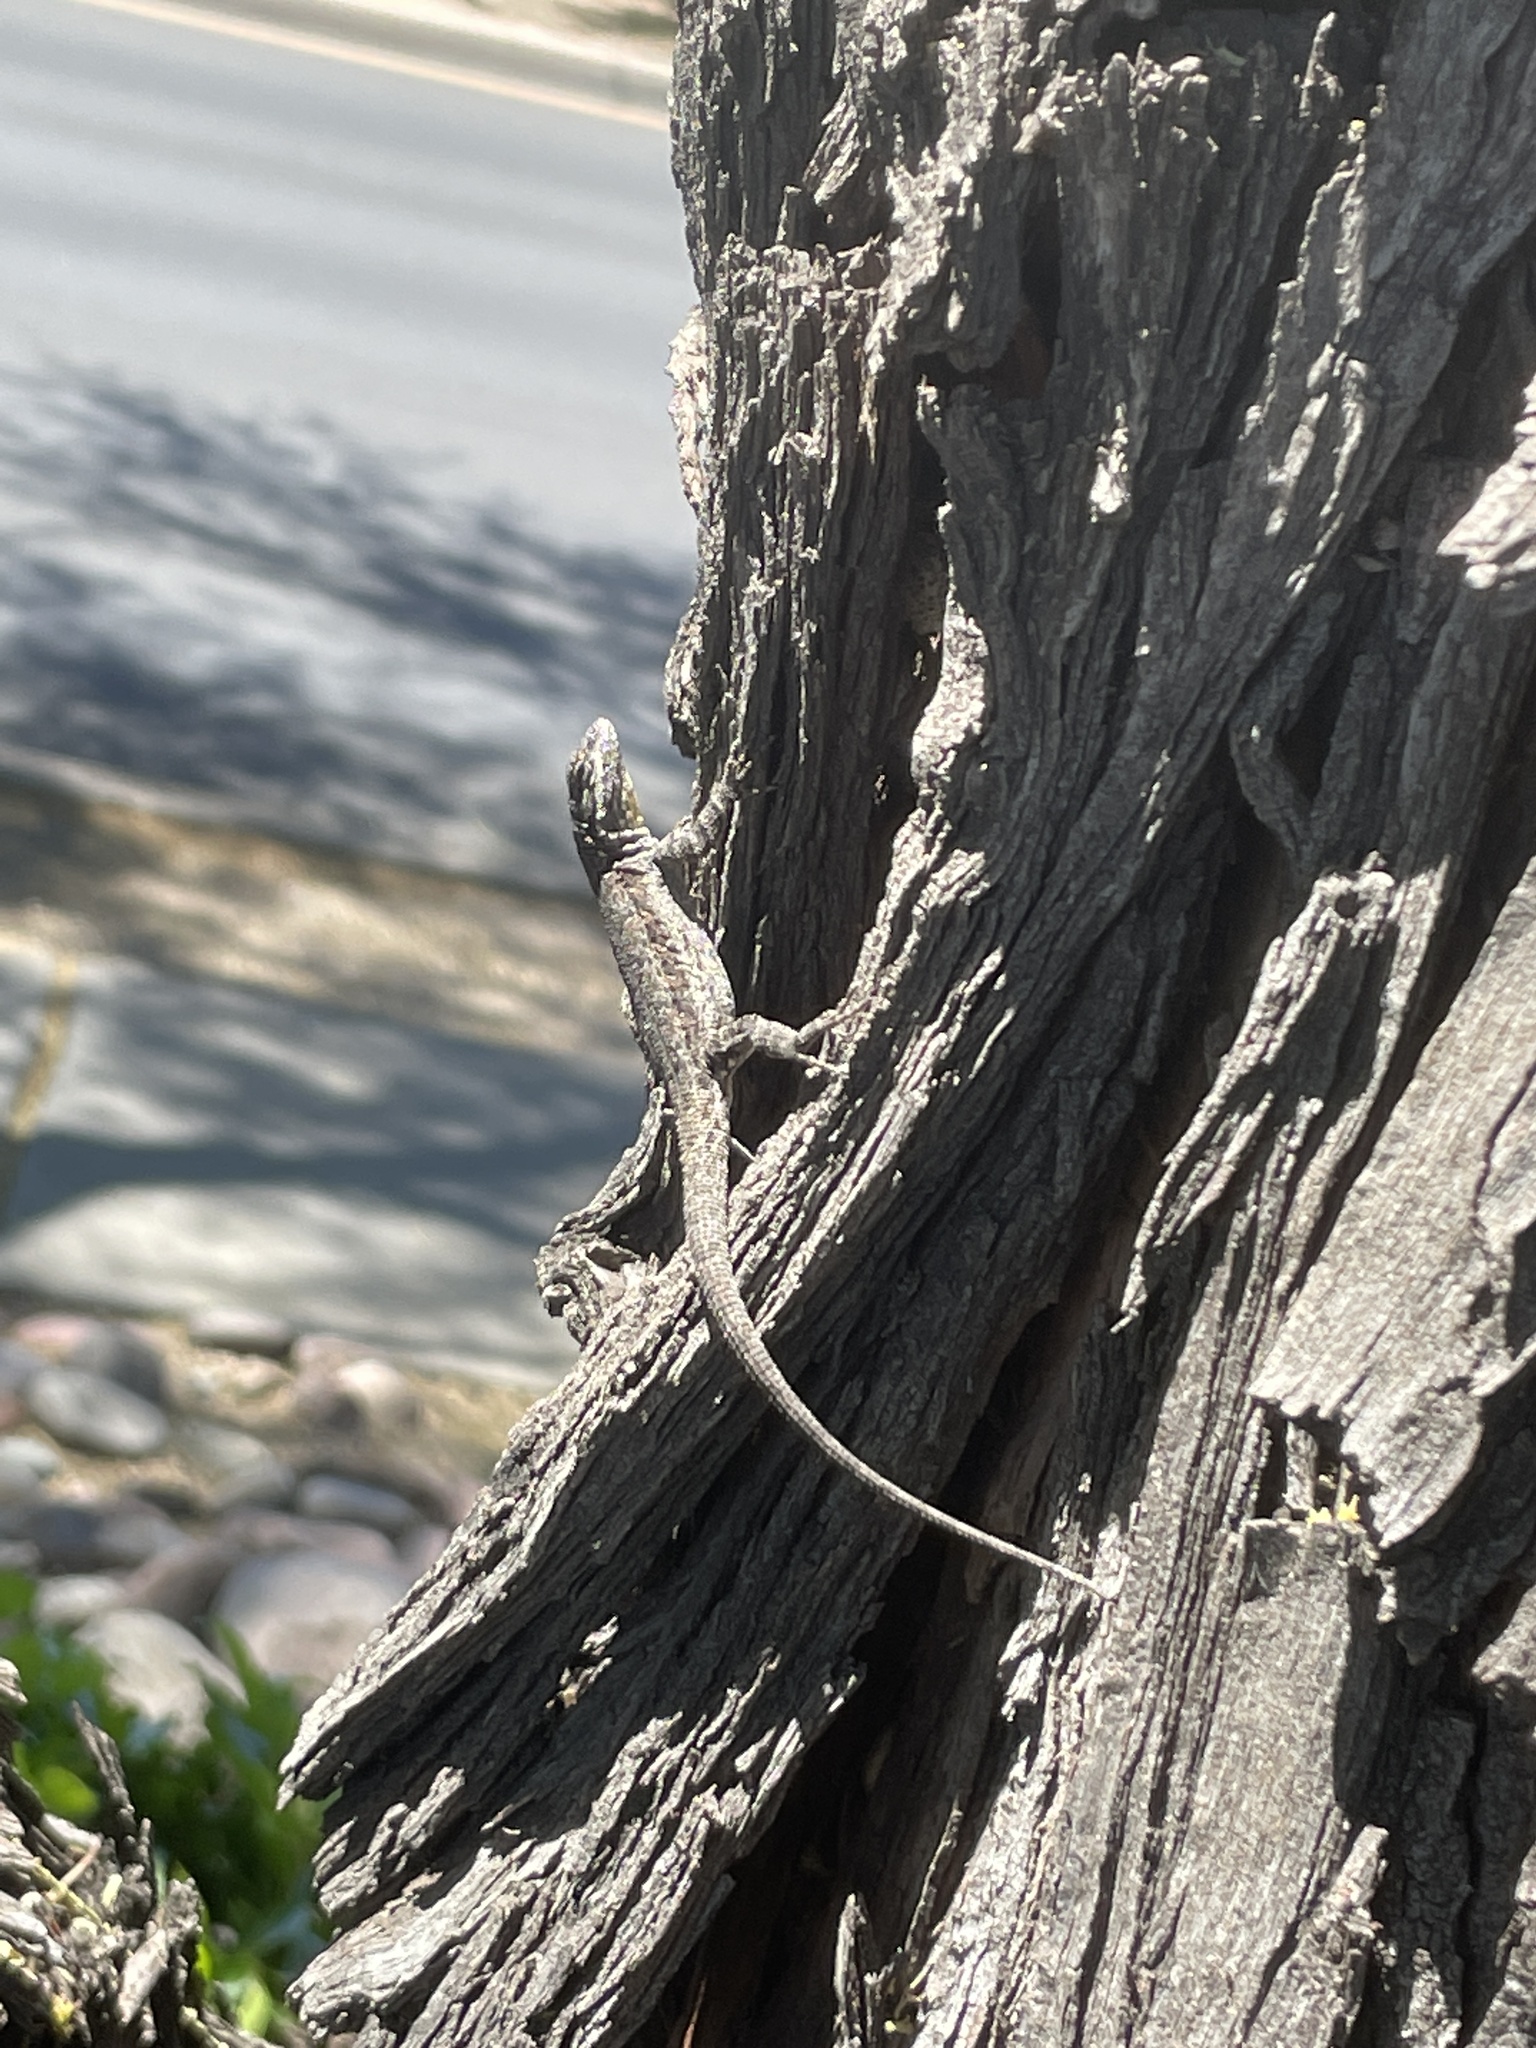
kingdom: Animalia
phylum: Chordata
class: Squamata
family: Phrynosomatidae
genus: Urosaurus
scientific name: Urosaurus ornatus
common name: Ornate tree lizard
